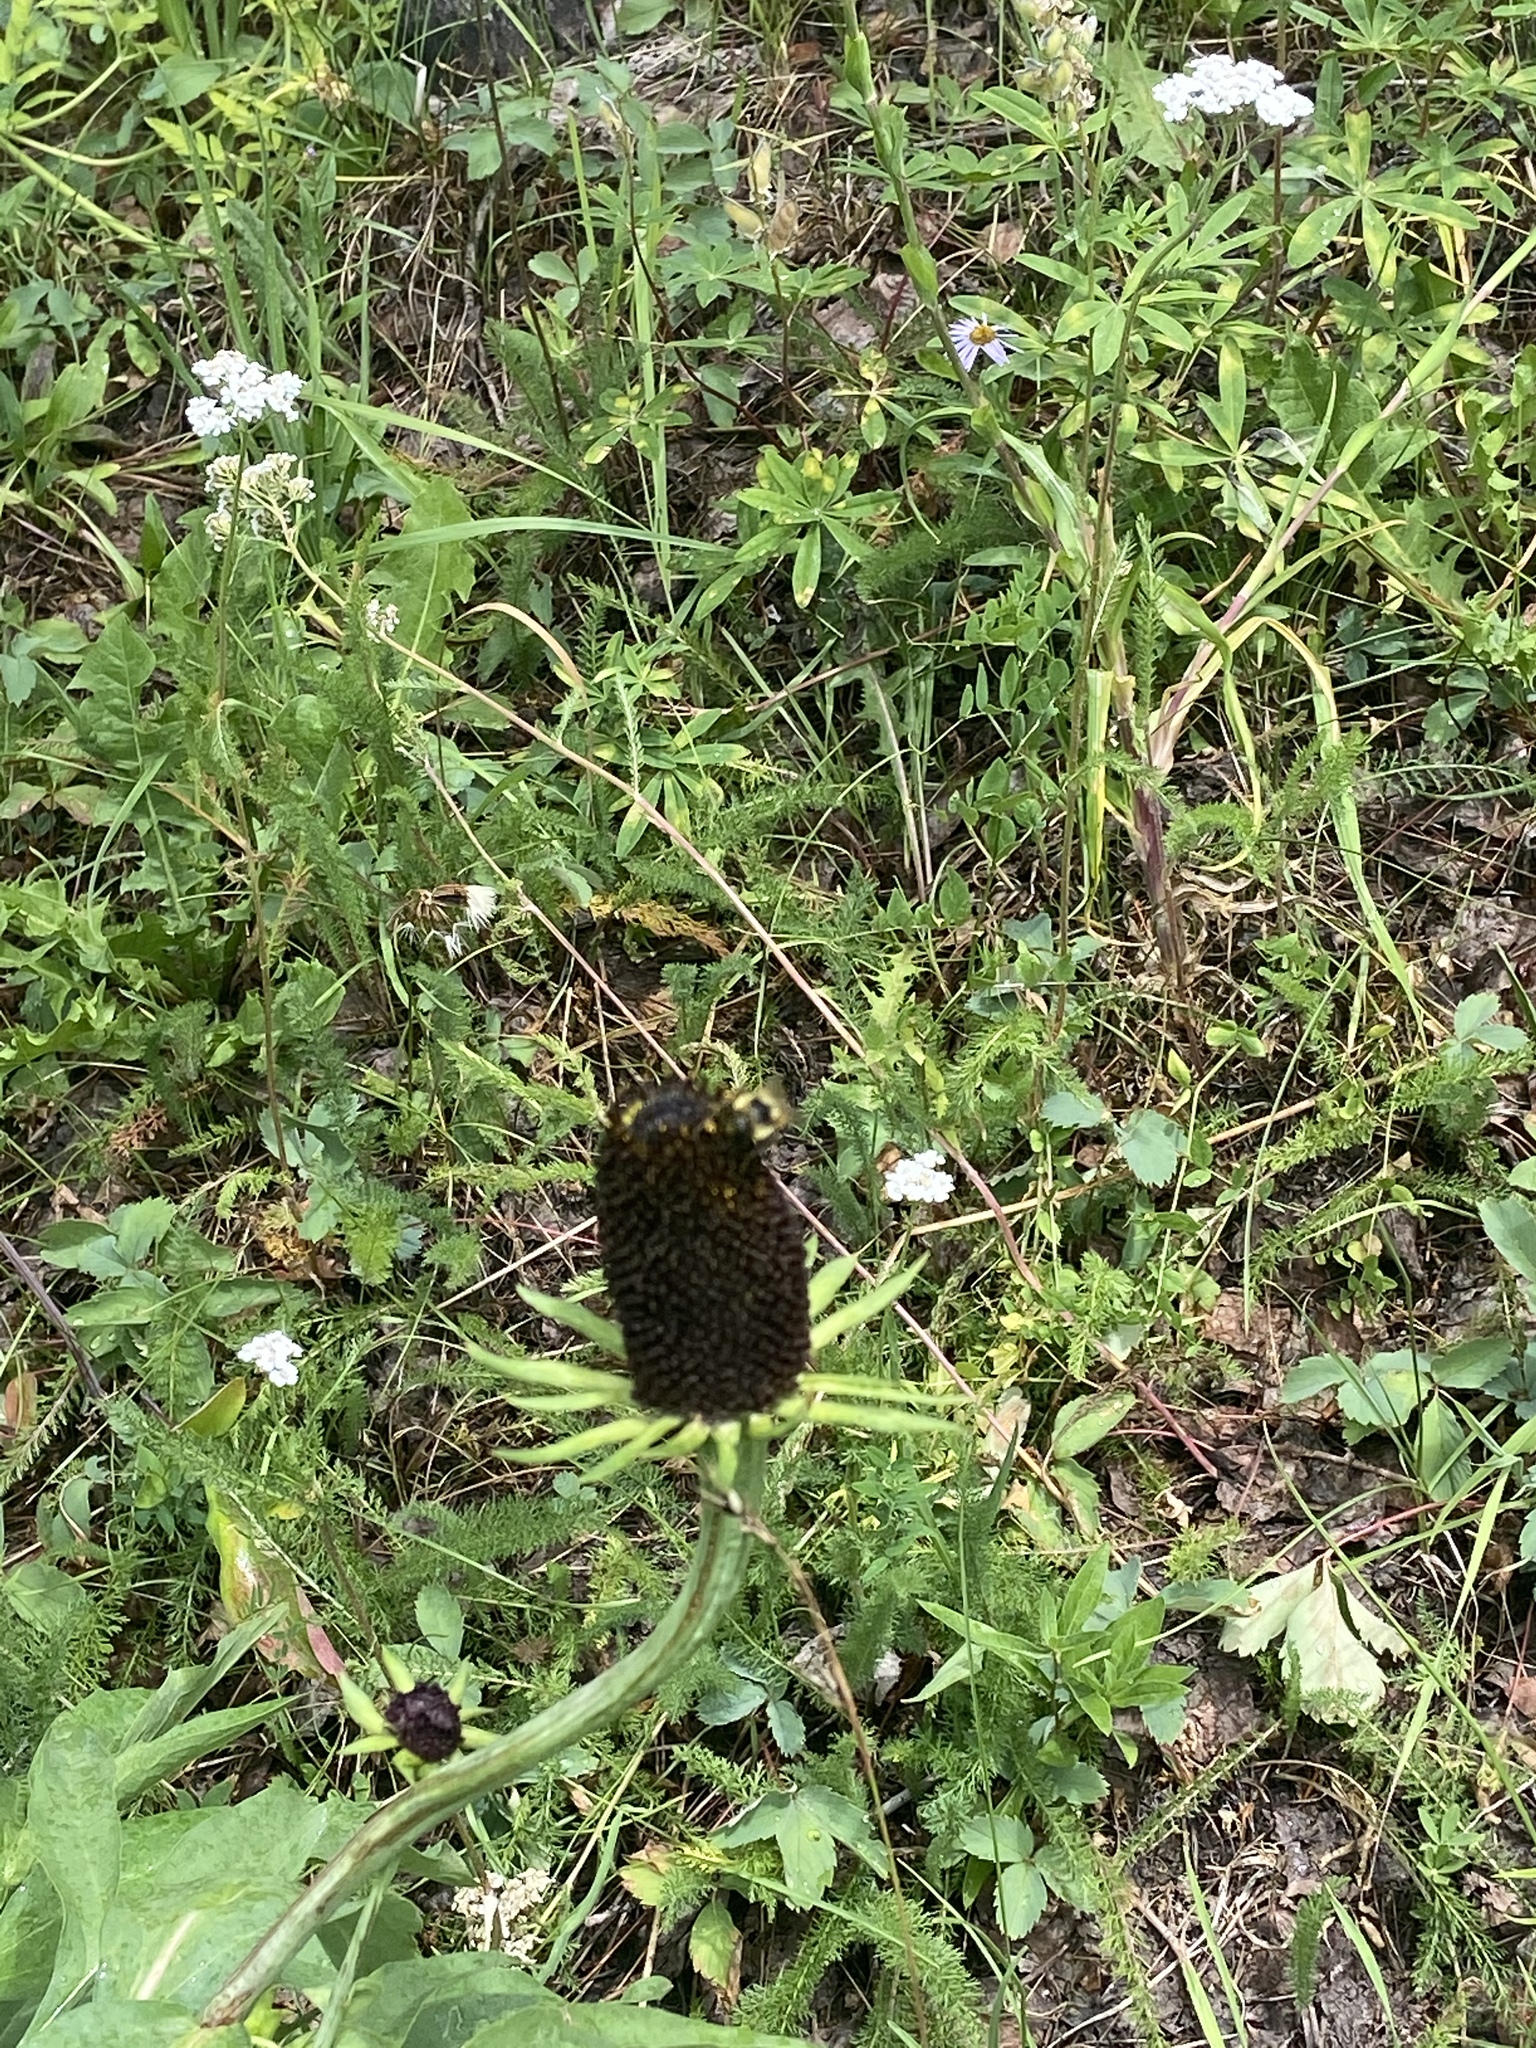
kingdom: Plantae
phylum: Tracheophyta
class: Magnoliopsida
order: Asterales
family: Asteraceae
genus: Rudbeckia
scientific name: Rudbeckia occidentalis
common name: Western coneflower
